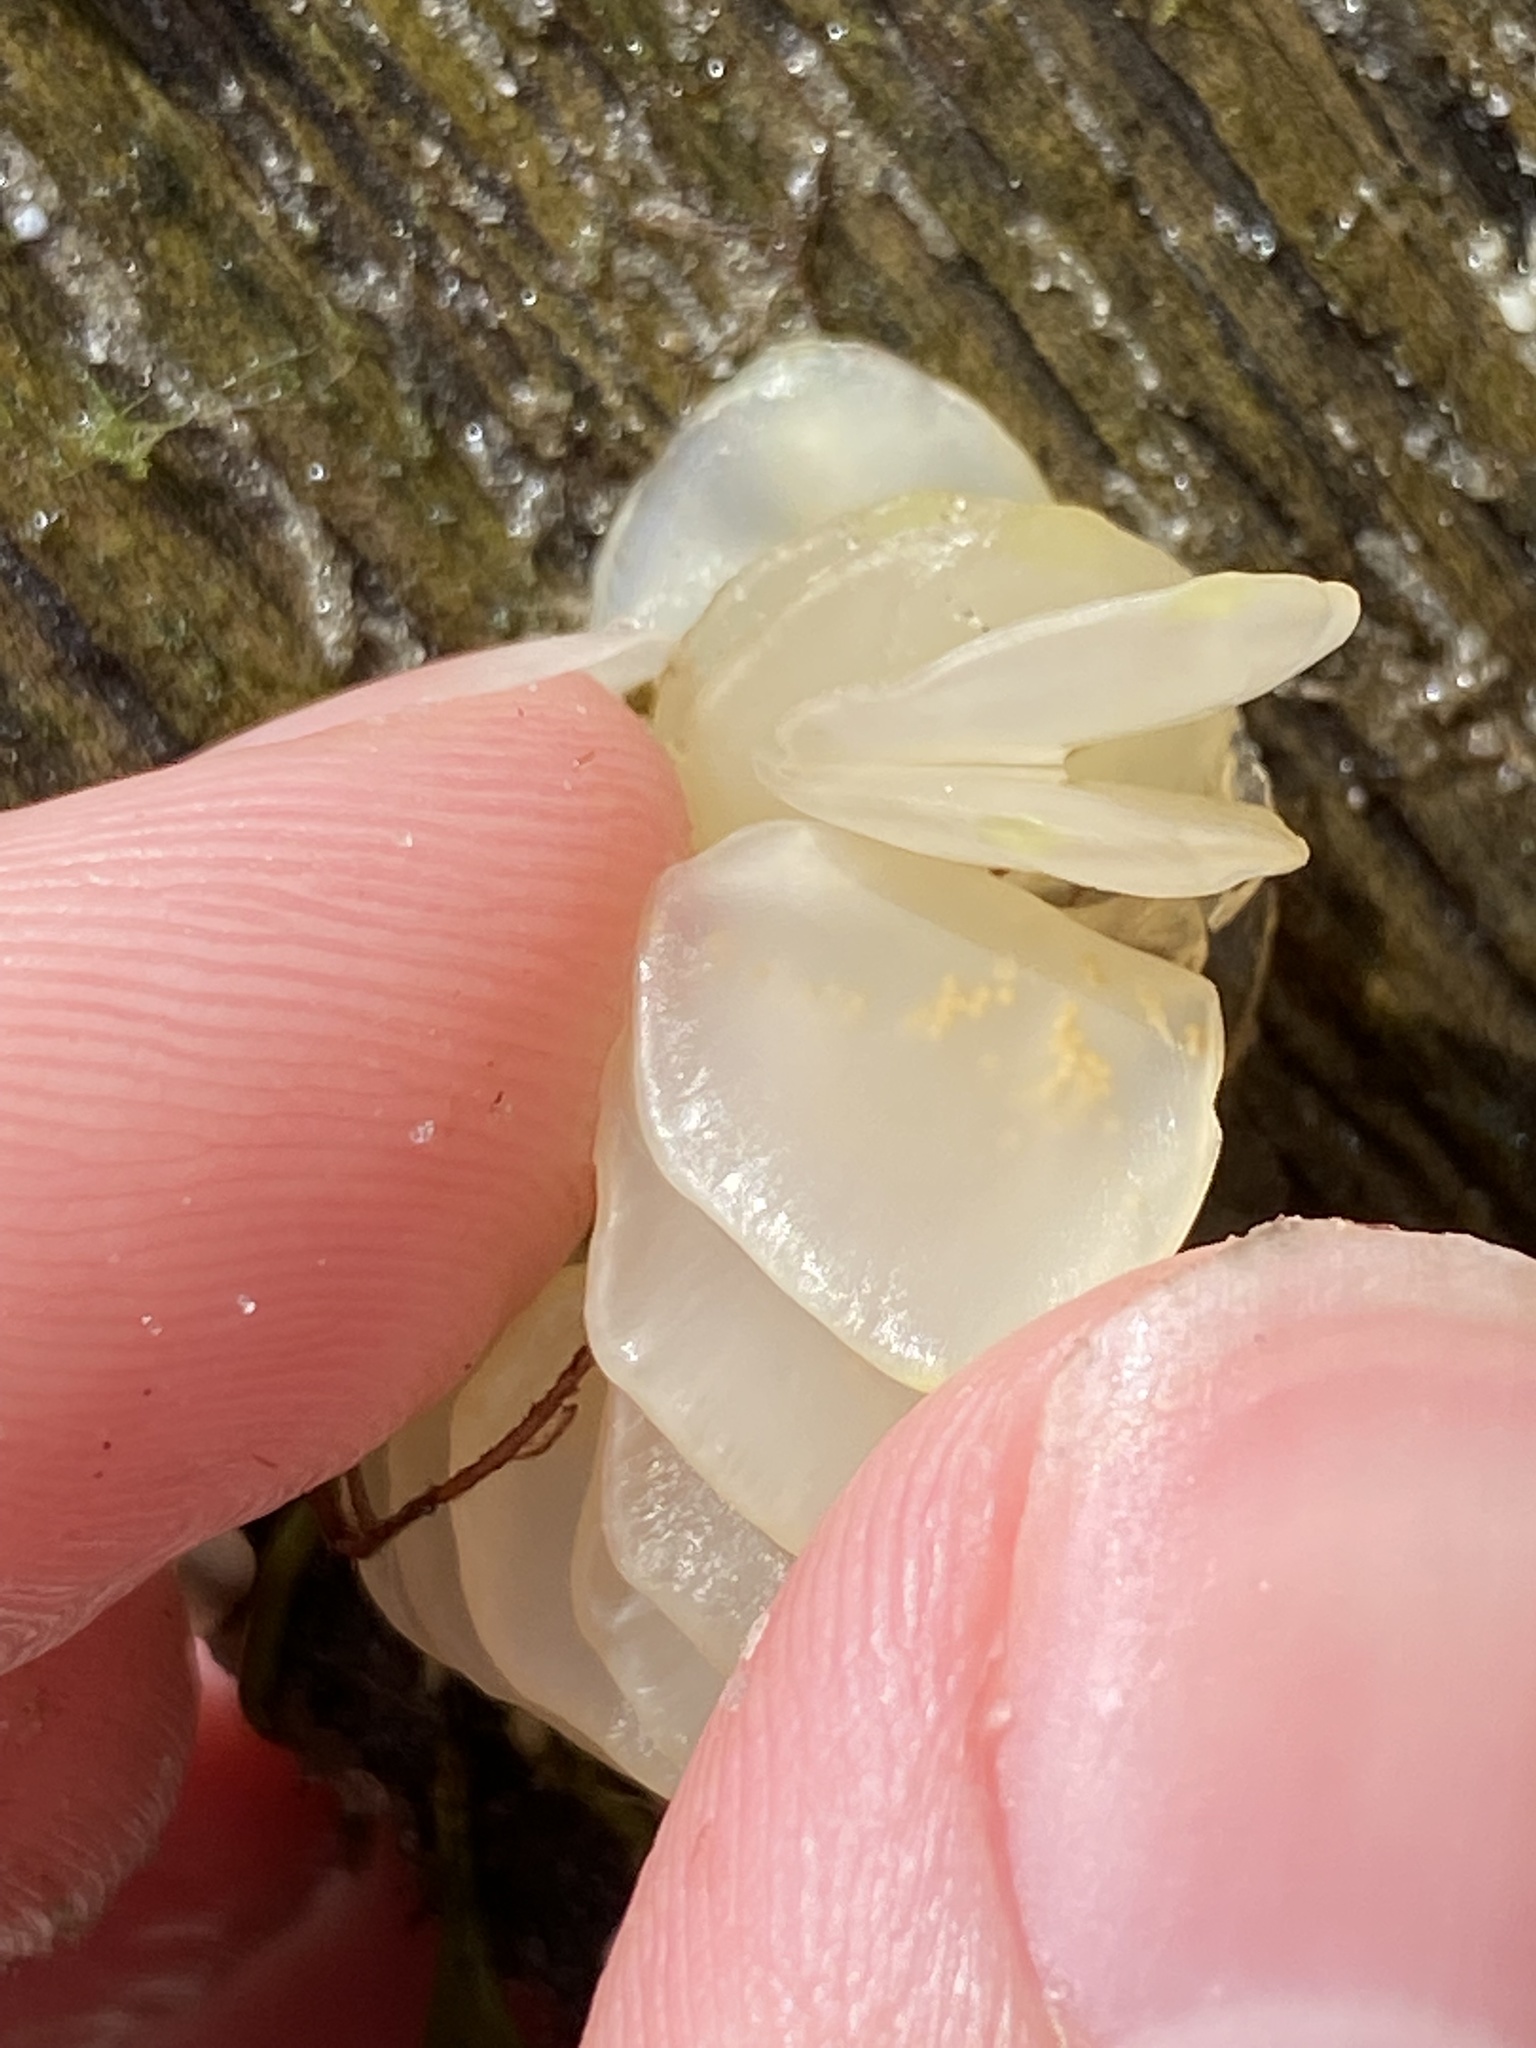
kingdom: Animalia
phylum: Mollusca
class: Gastropoda
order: Neogastropoda
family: Melongenidae
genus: Melongena
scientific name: Melongena corona
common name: American crown conch
